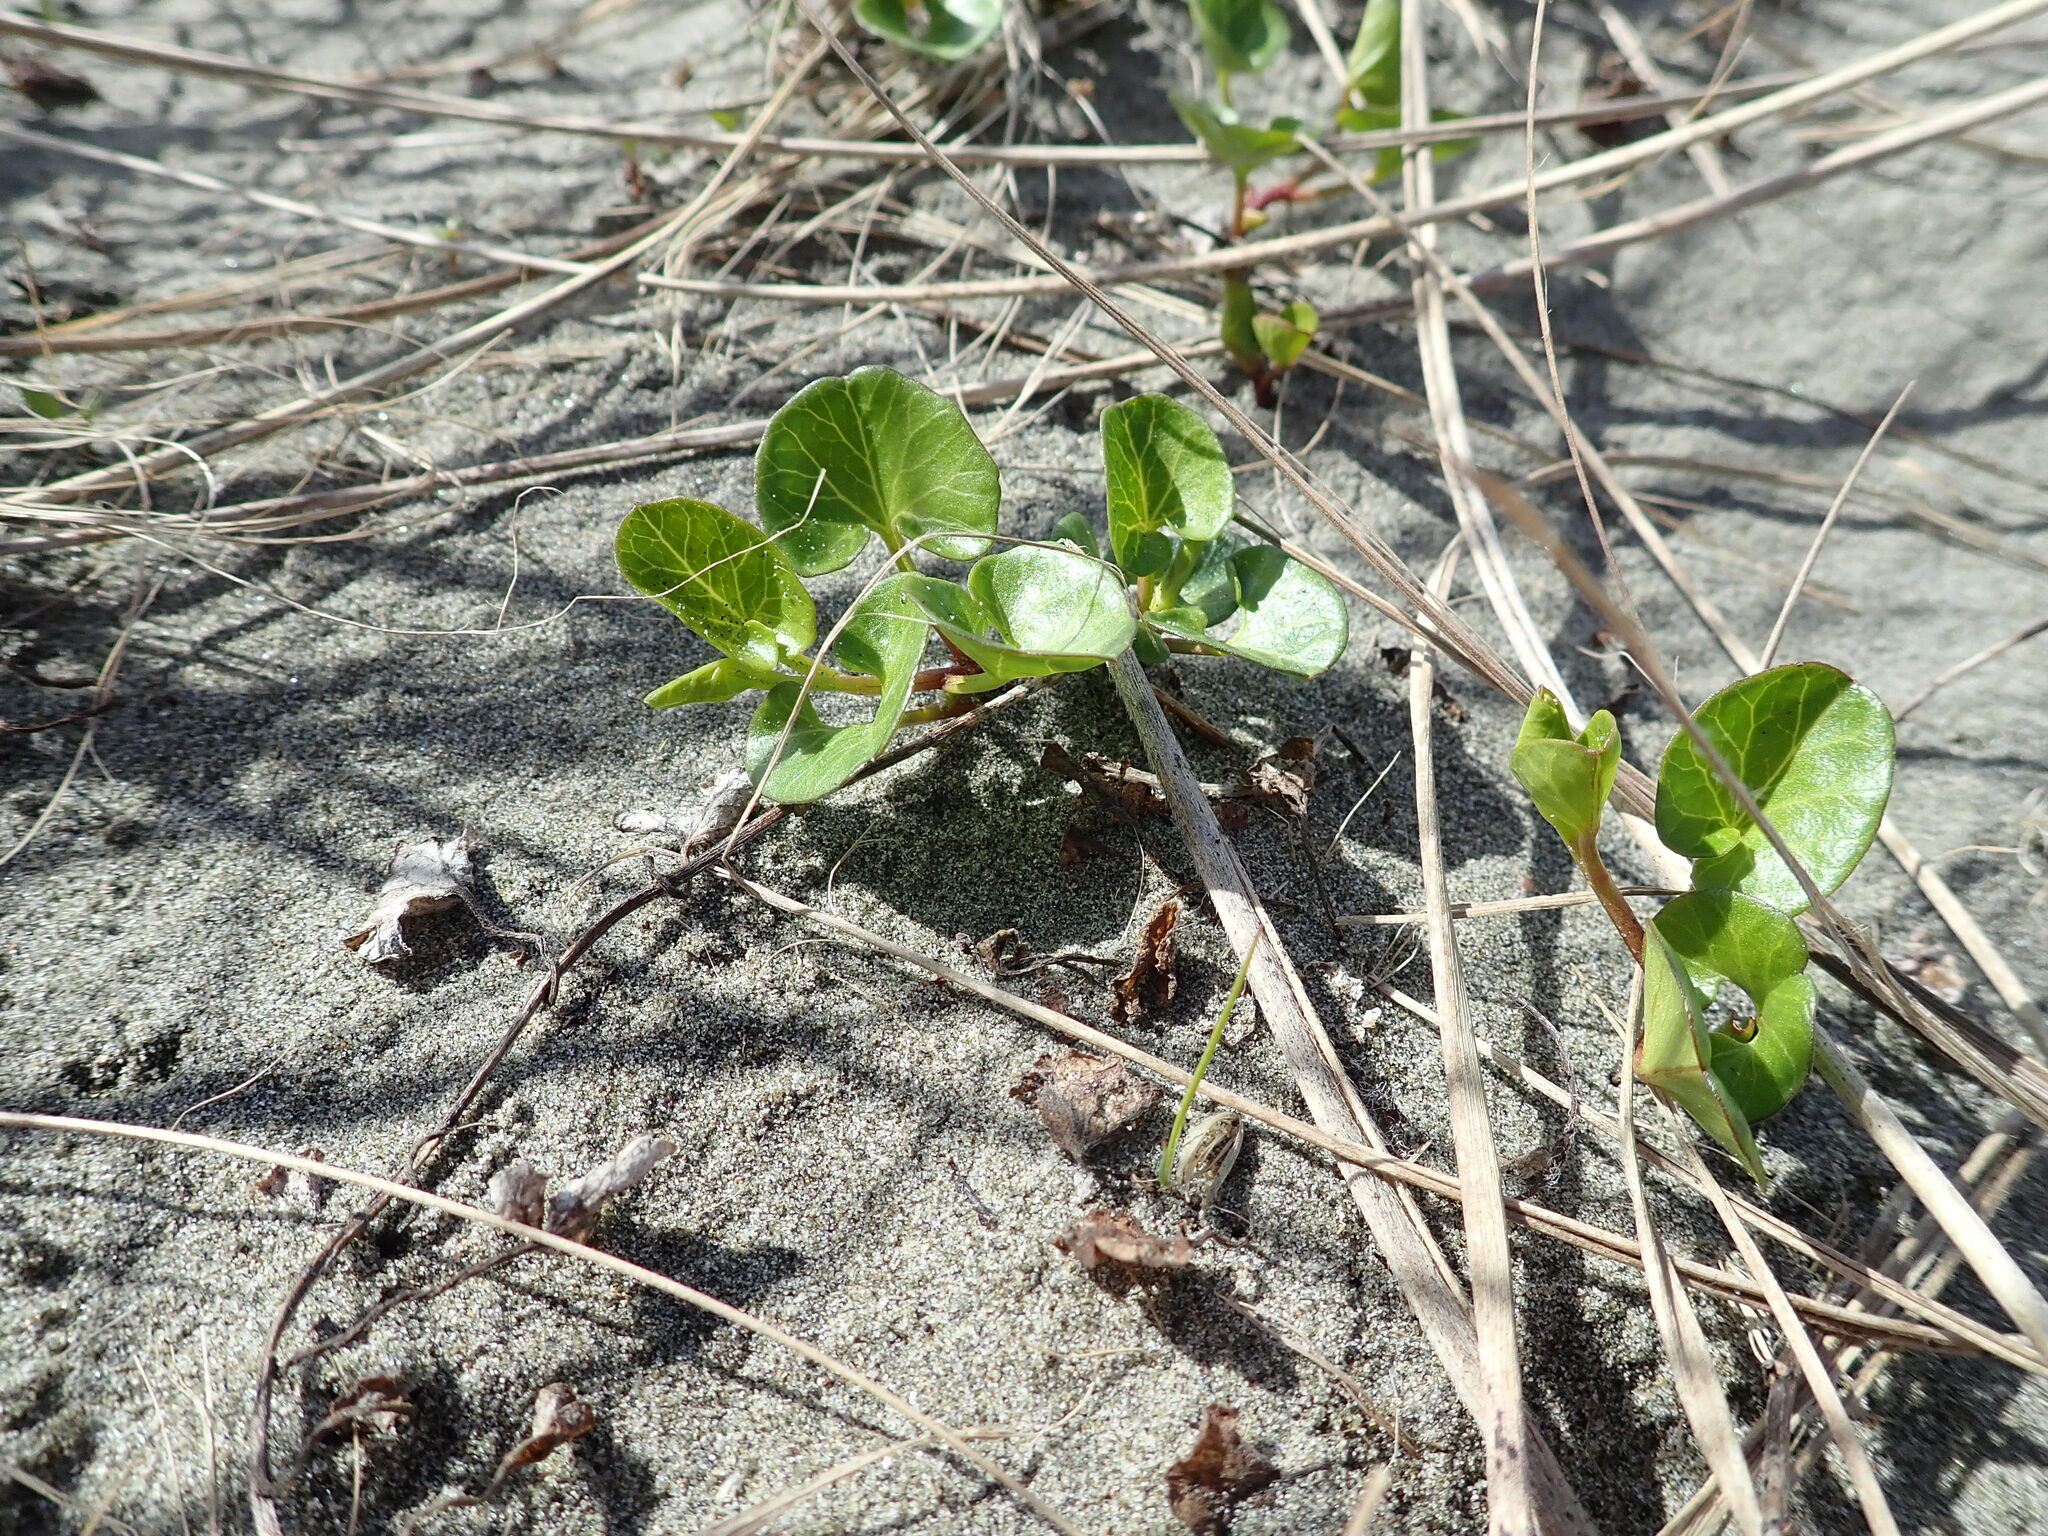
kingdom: Plantae
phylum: Tracheophyta
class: Magnoliopsida
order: Solanales
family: Convolvulaceae
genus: Calystegia
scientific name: Calystegia soldanella
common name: Sea bindweed
